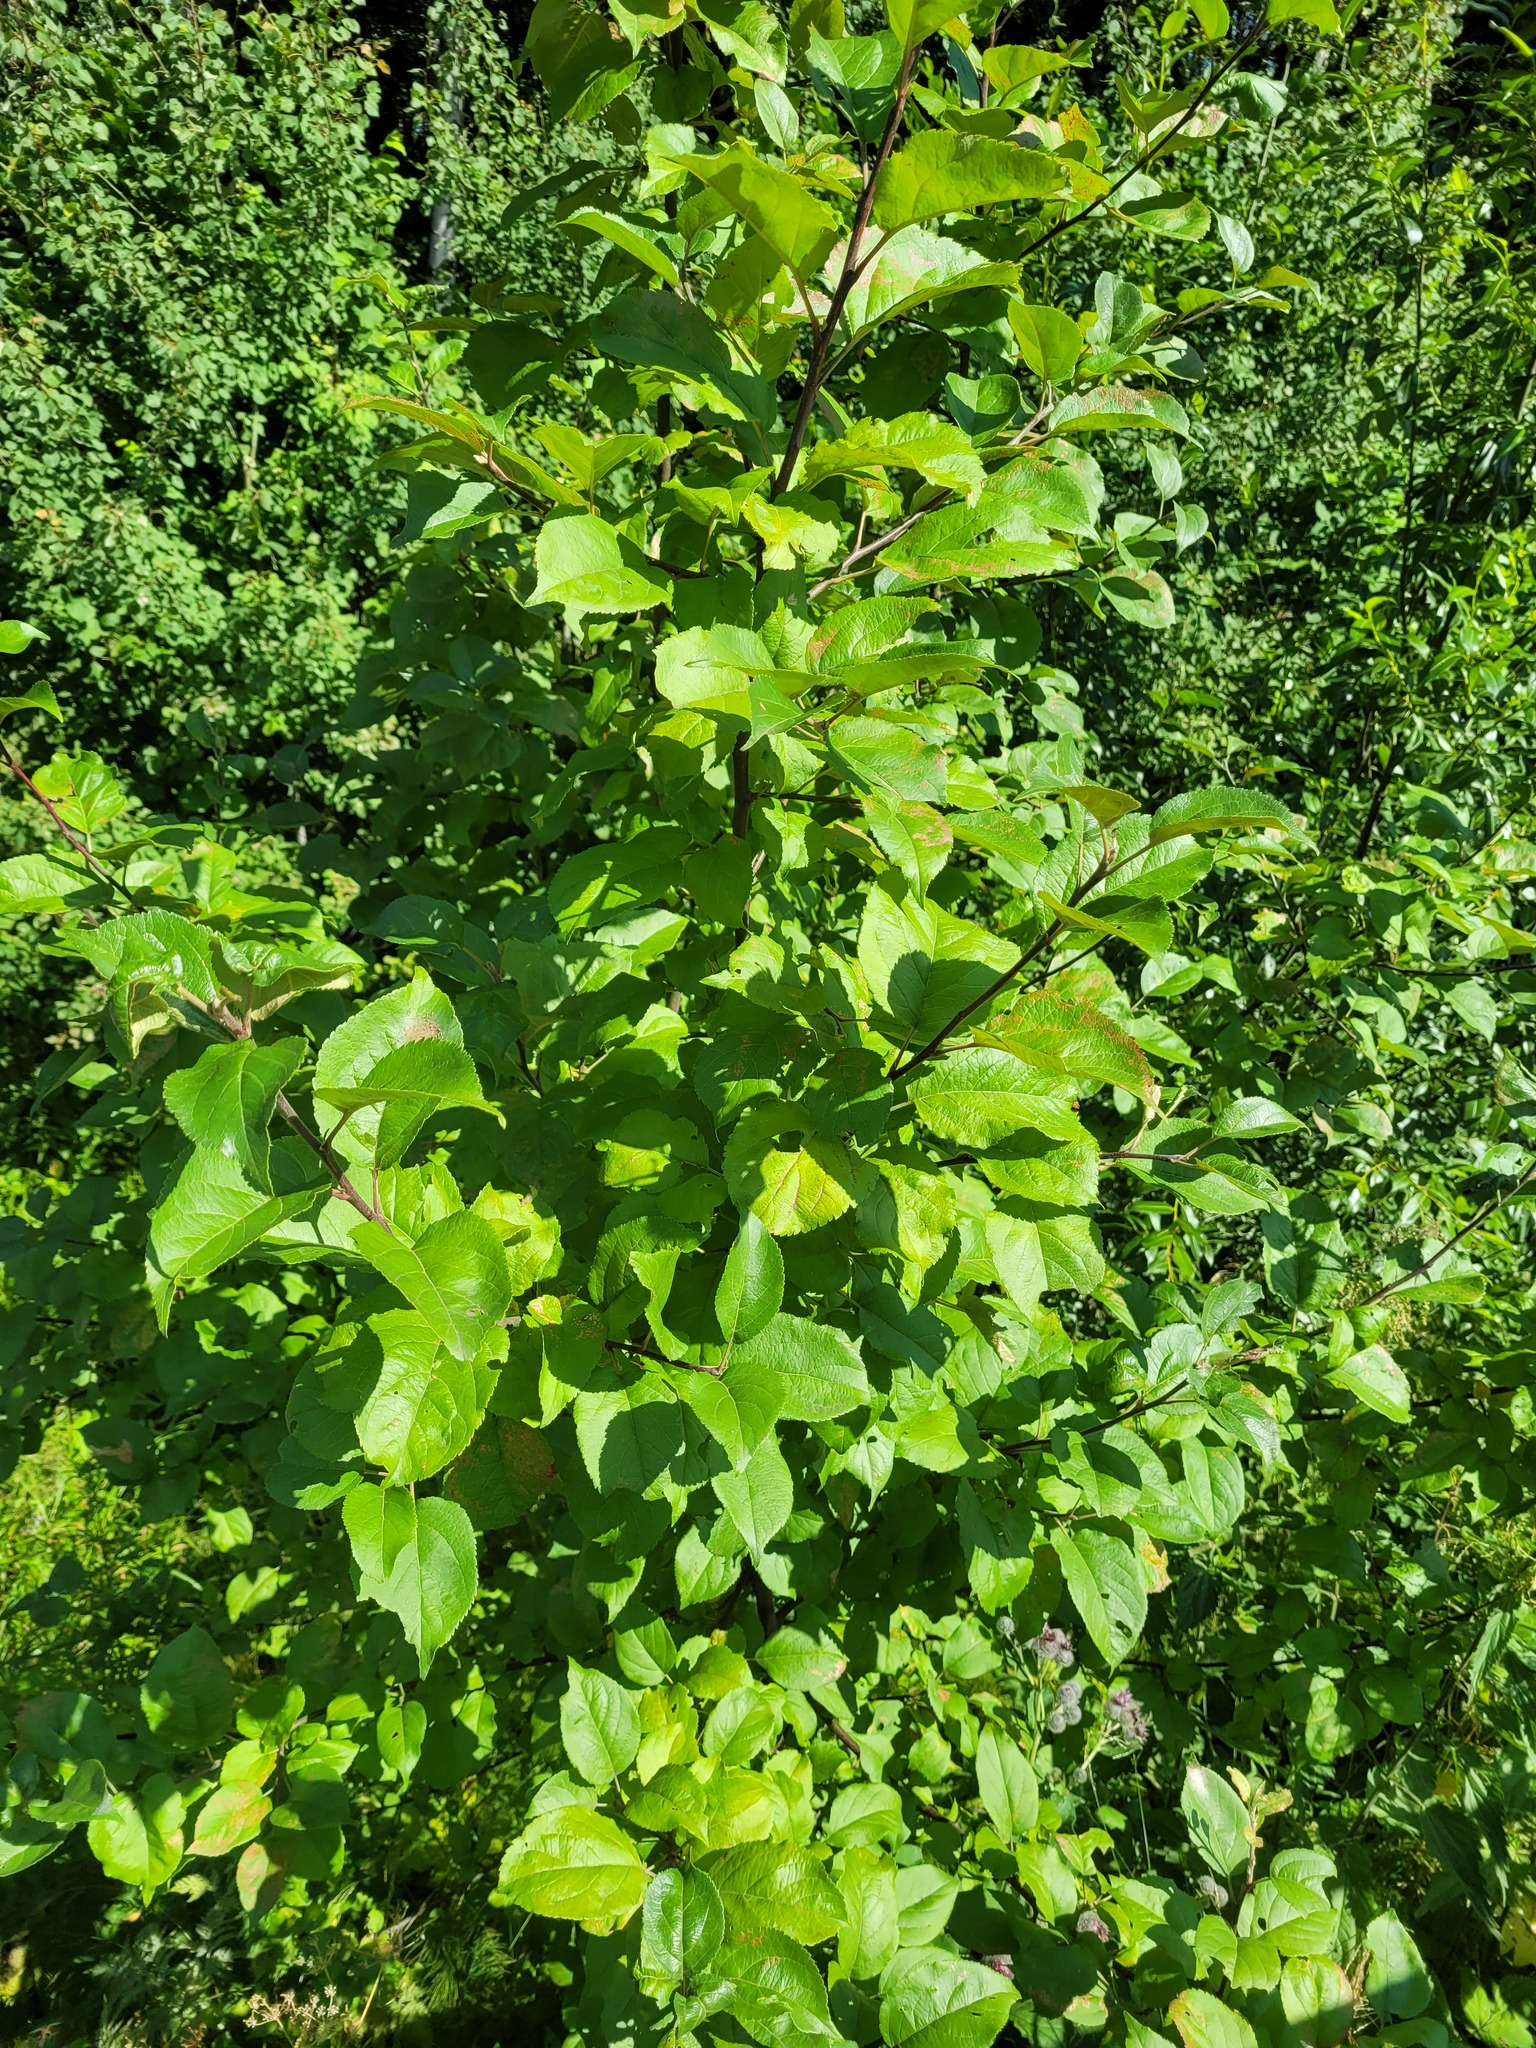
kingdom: Plantae
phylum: Tracheophyta
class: Magnoliopsida
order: Rosales
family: Rosaceae
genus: Malus
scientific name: Malus domestica
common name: Apple
